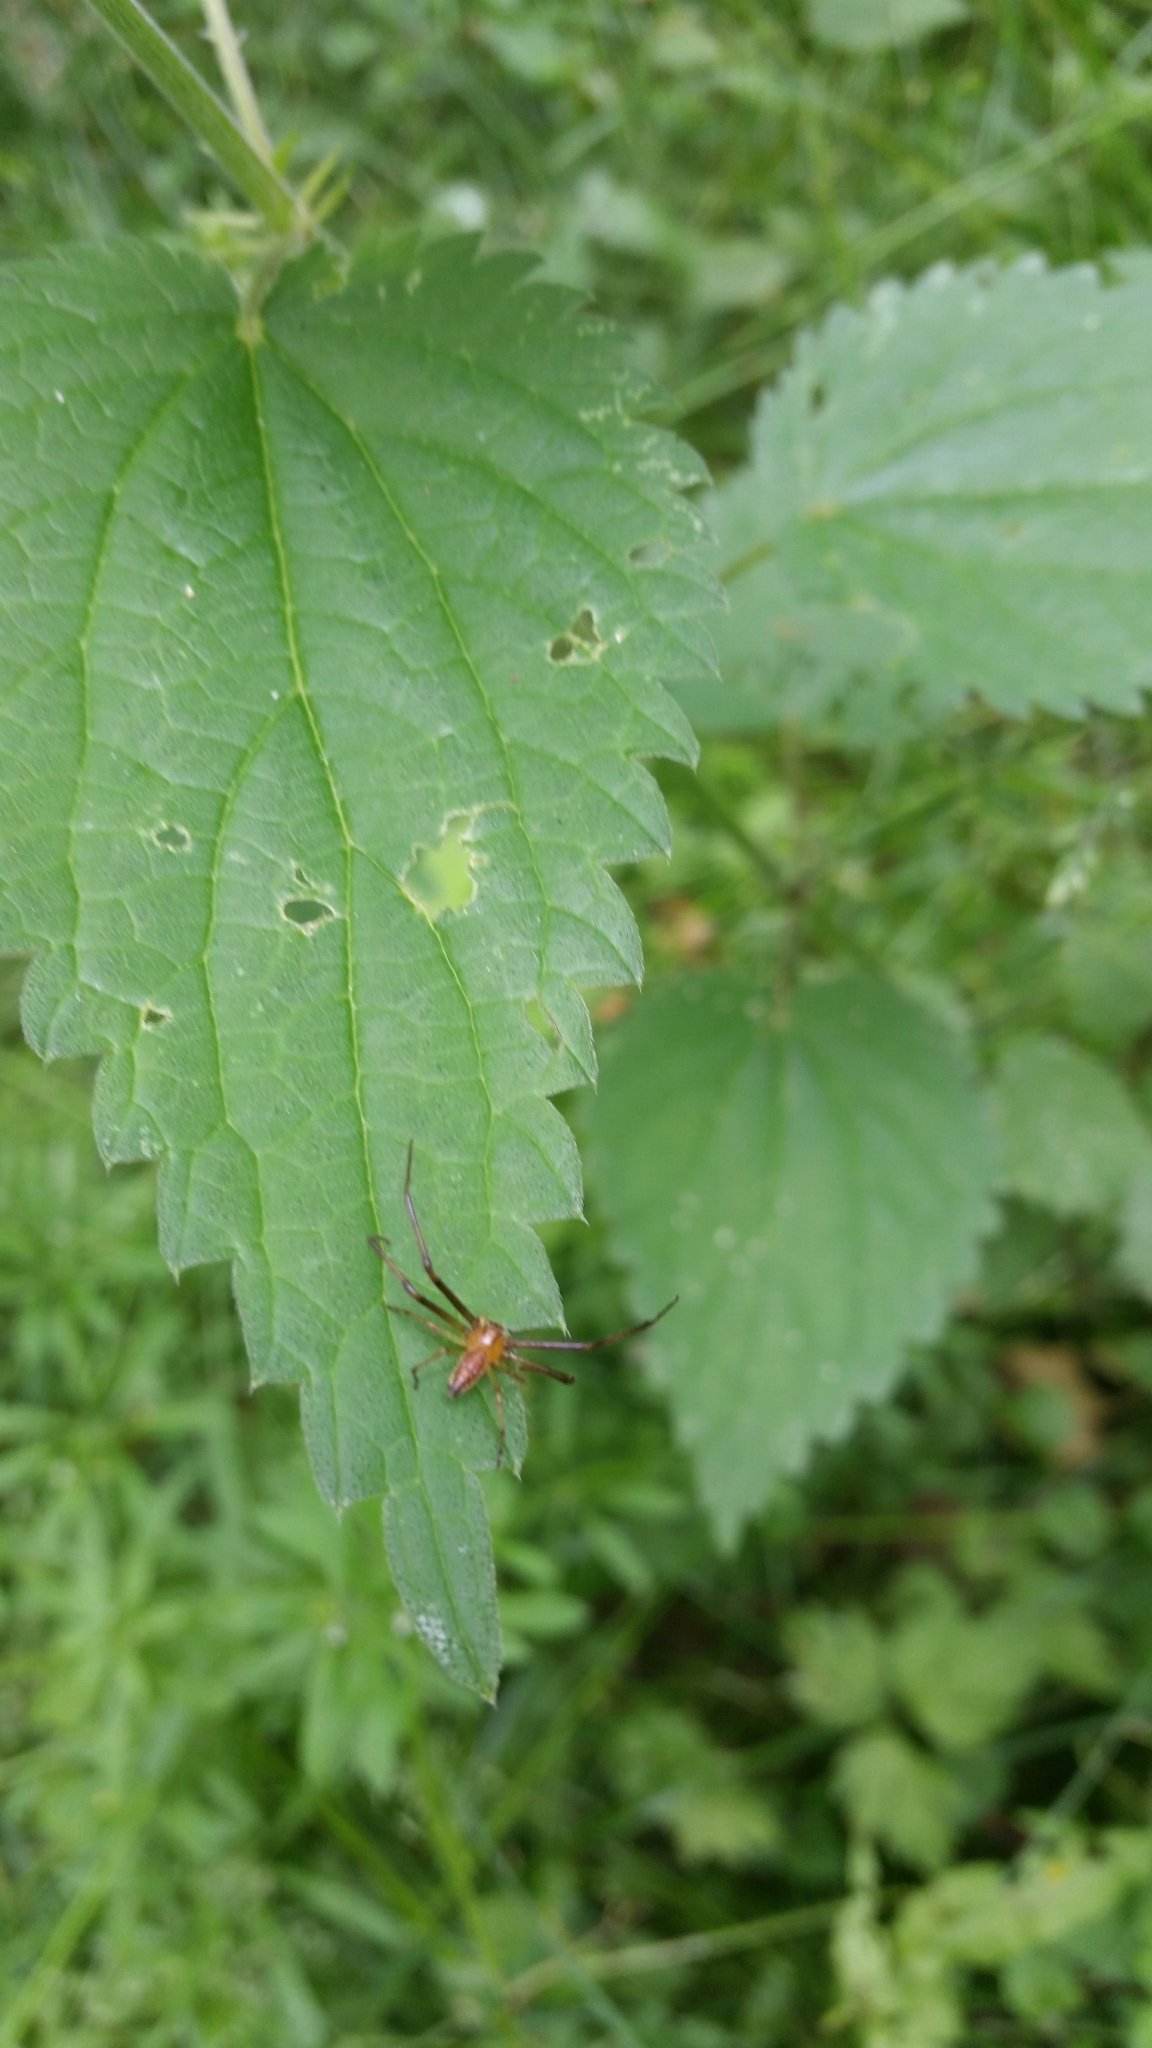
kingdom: Animalia
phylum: Arthropoda
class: Arachnida
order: Araneae
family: Thomisidae
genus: Diaea
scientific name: Diaea dorsata
